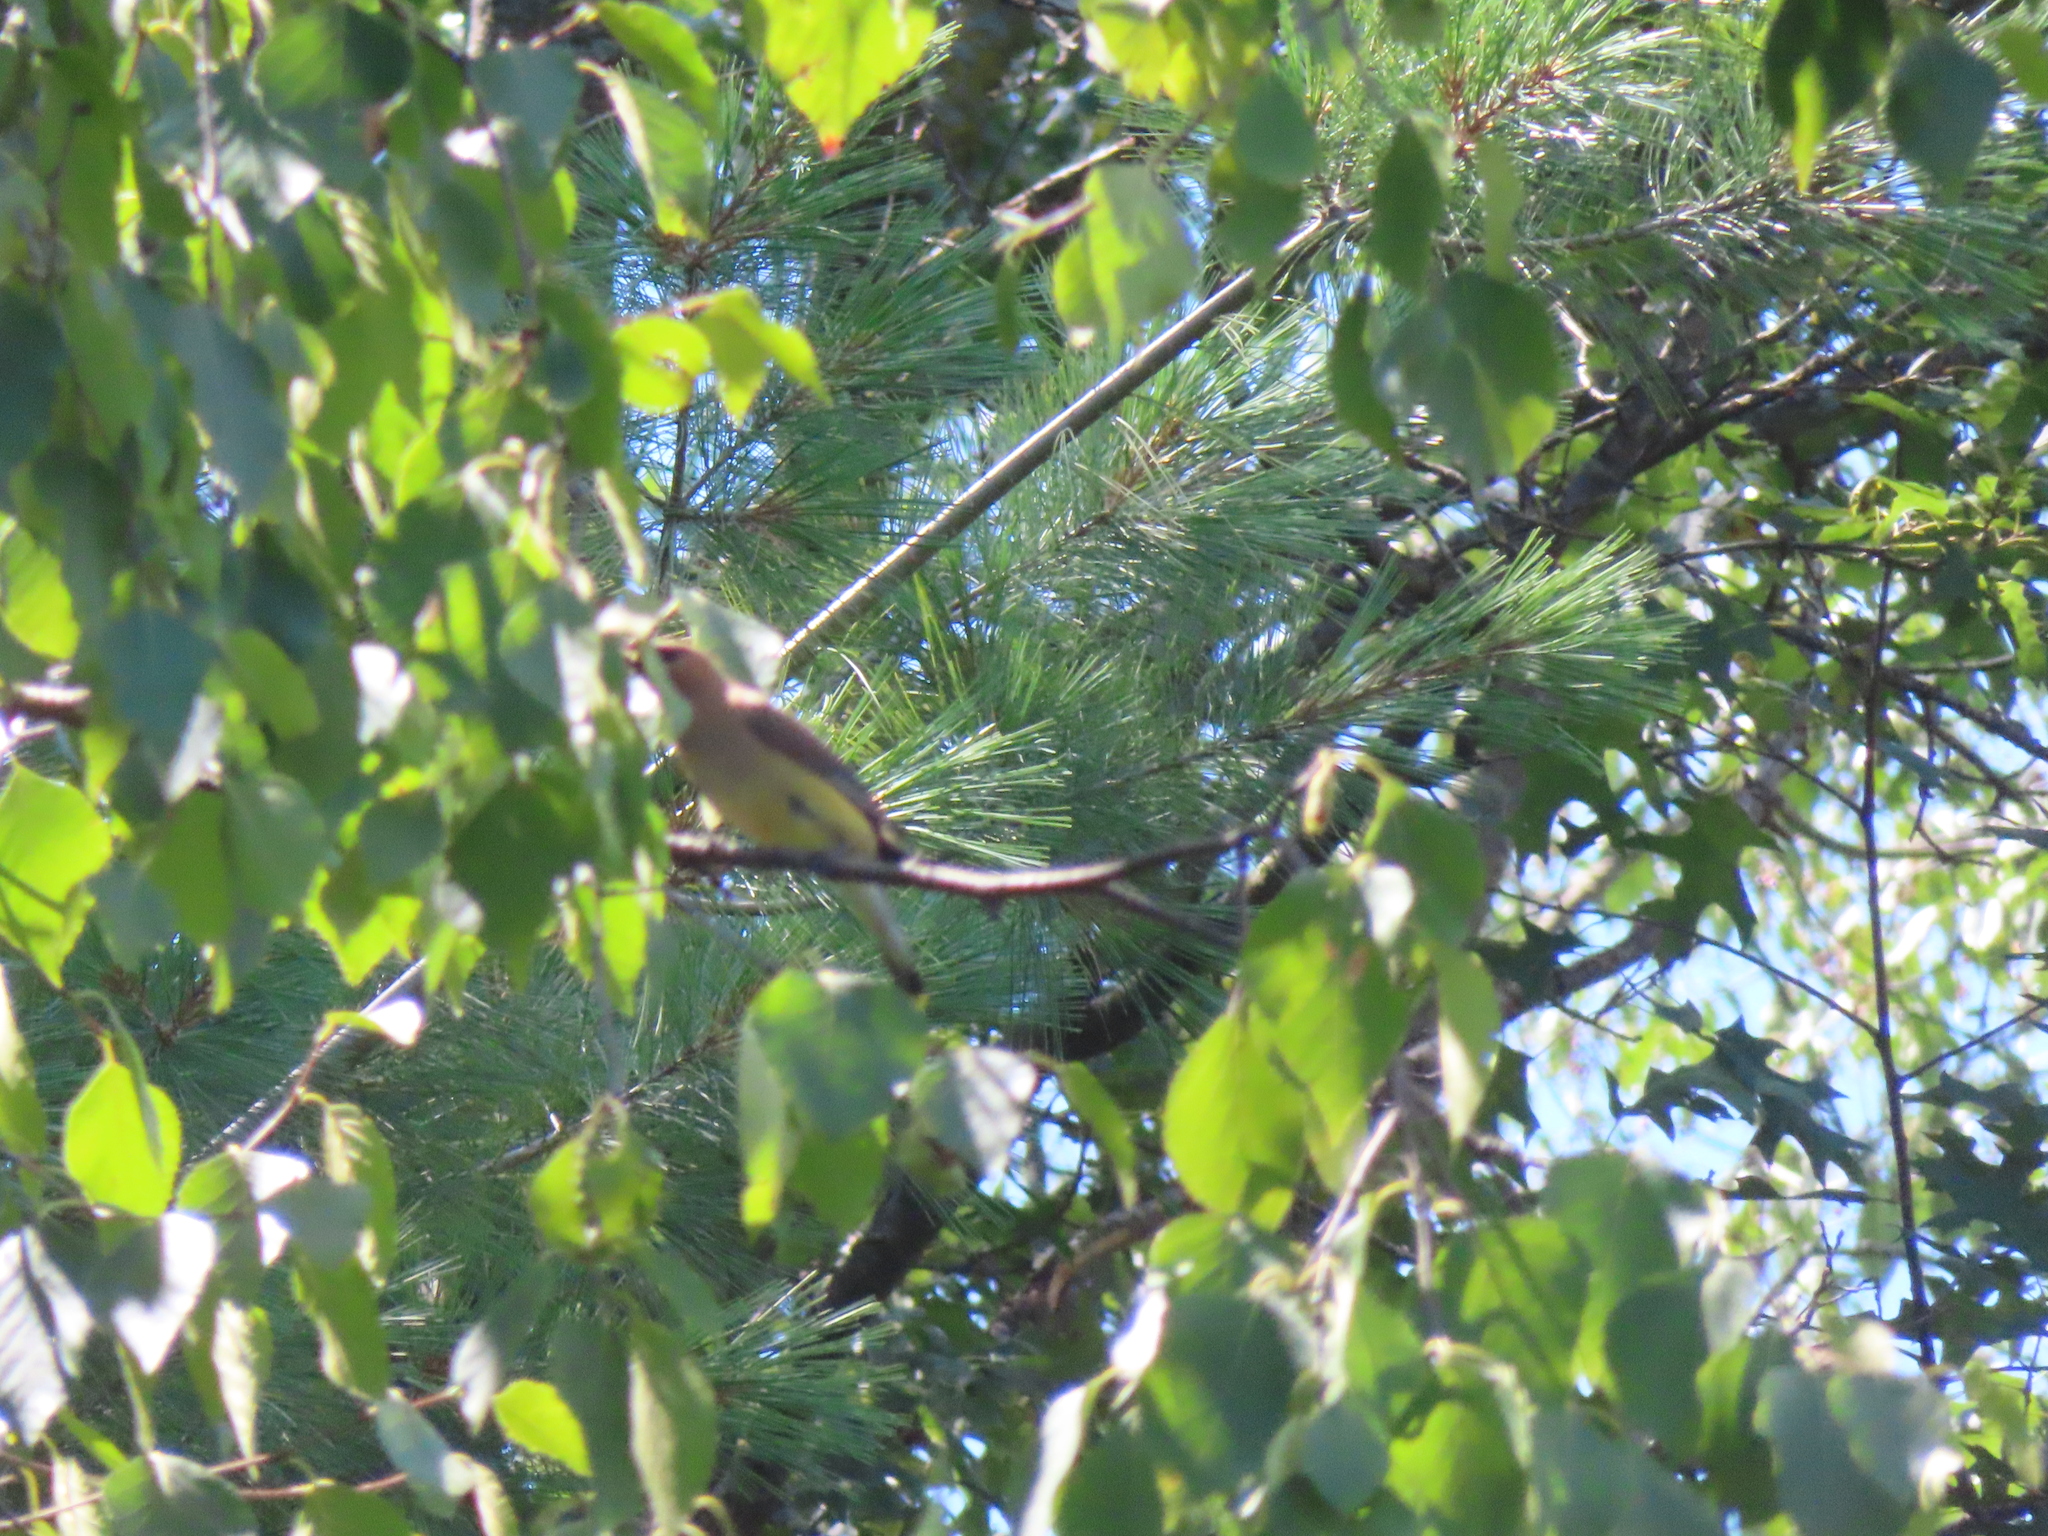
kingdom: Animalia
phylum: Chordata
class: Aves
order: Passeriformes
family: Bombycillidae
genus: Bombycilla
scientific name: Bombycilla cedrorum
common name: Cedar waxwing
